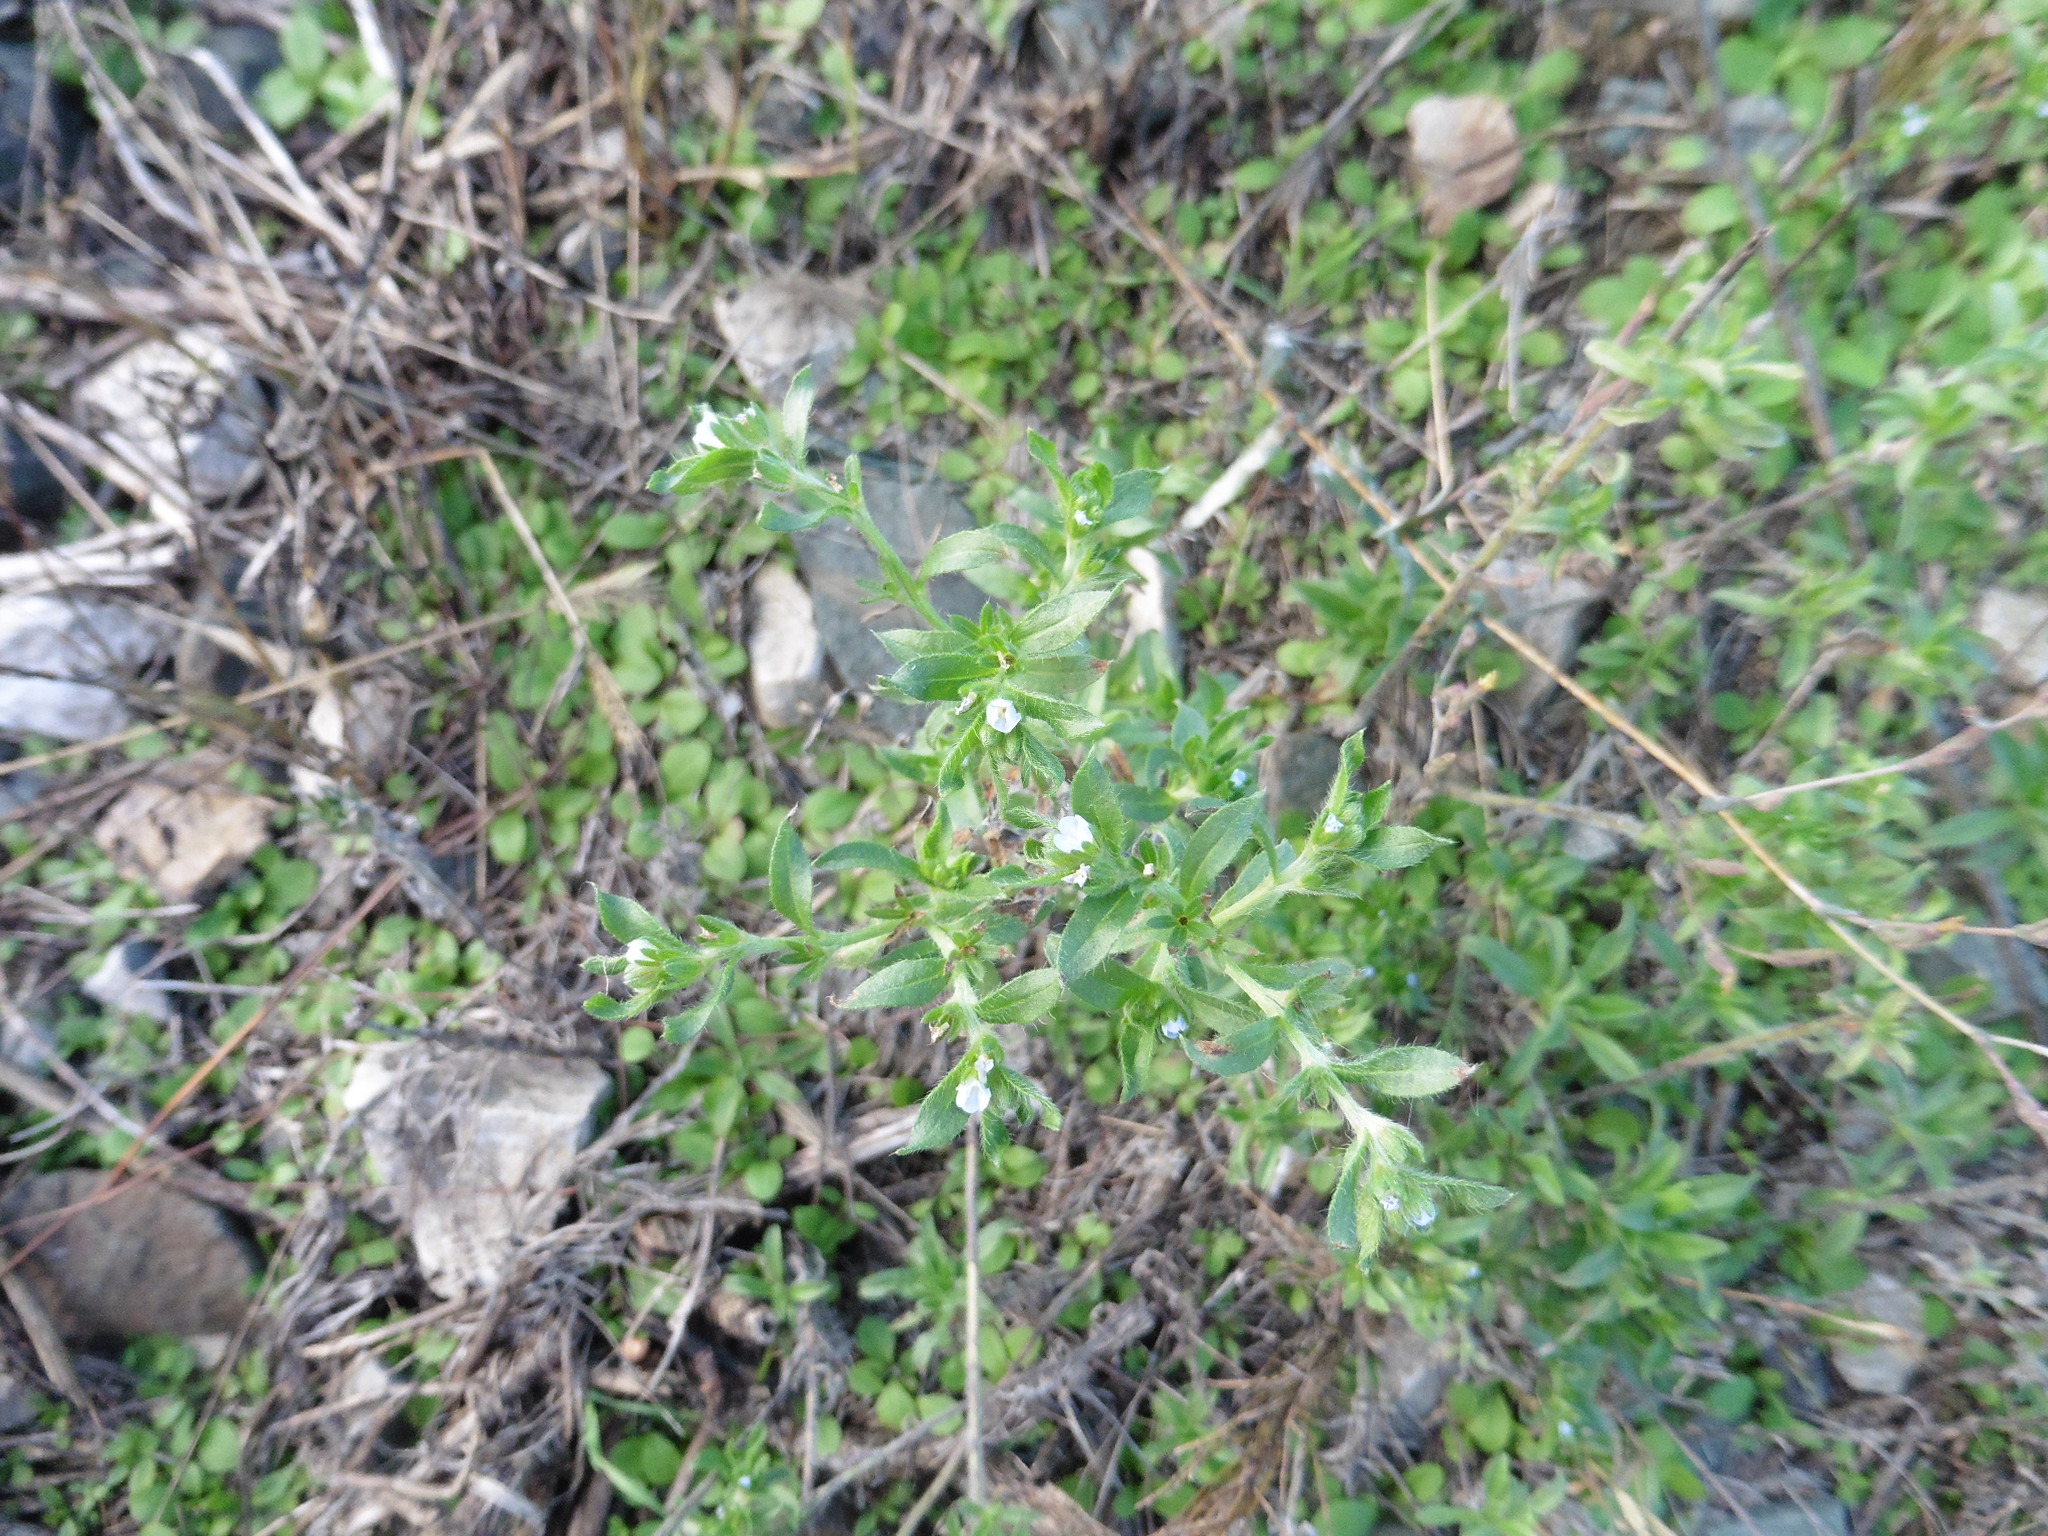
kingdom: Plantae
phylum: Tracheophyta
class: Magnoliopsida
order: Boraginales
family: Boraginaceae
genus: Lappula
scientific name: Lappula squarrosa
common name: European stickseed
